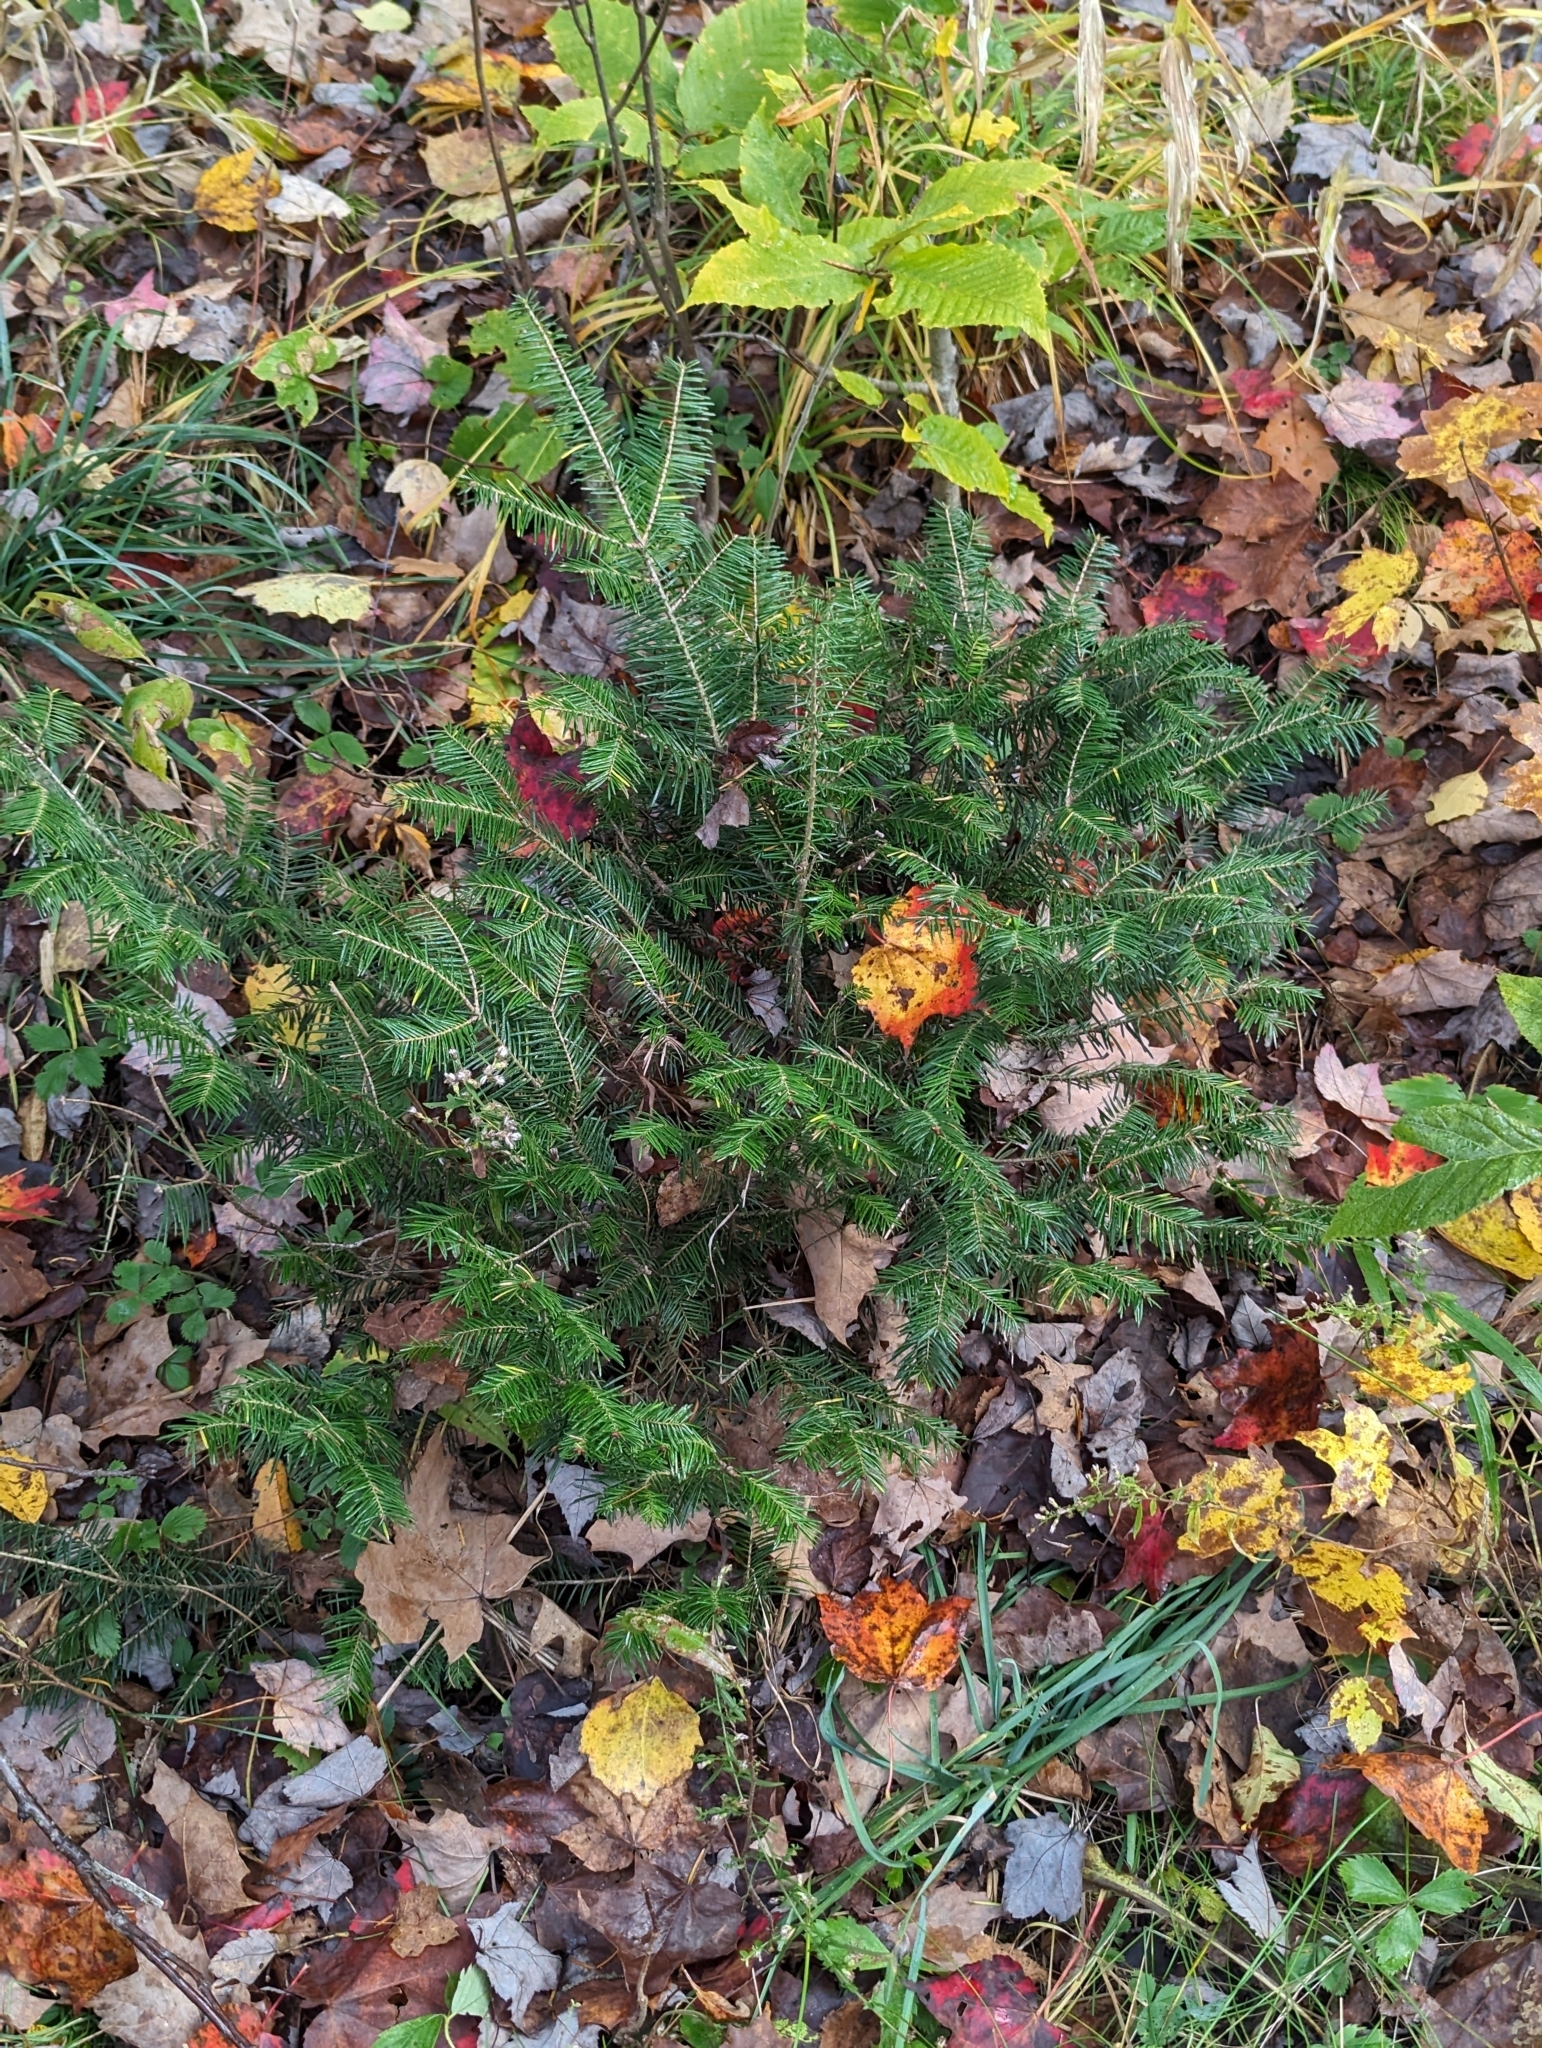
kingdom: Plantae
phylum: Tracheophyta
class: Pinopsida
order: Pinales
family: Pinaceae
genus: Abies
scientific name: Abies balsamea
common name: Balsam fir
